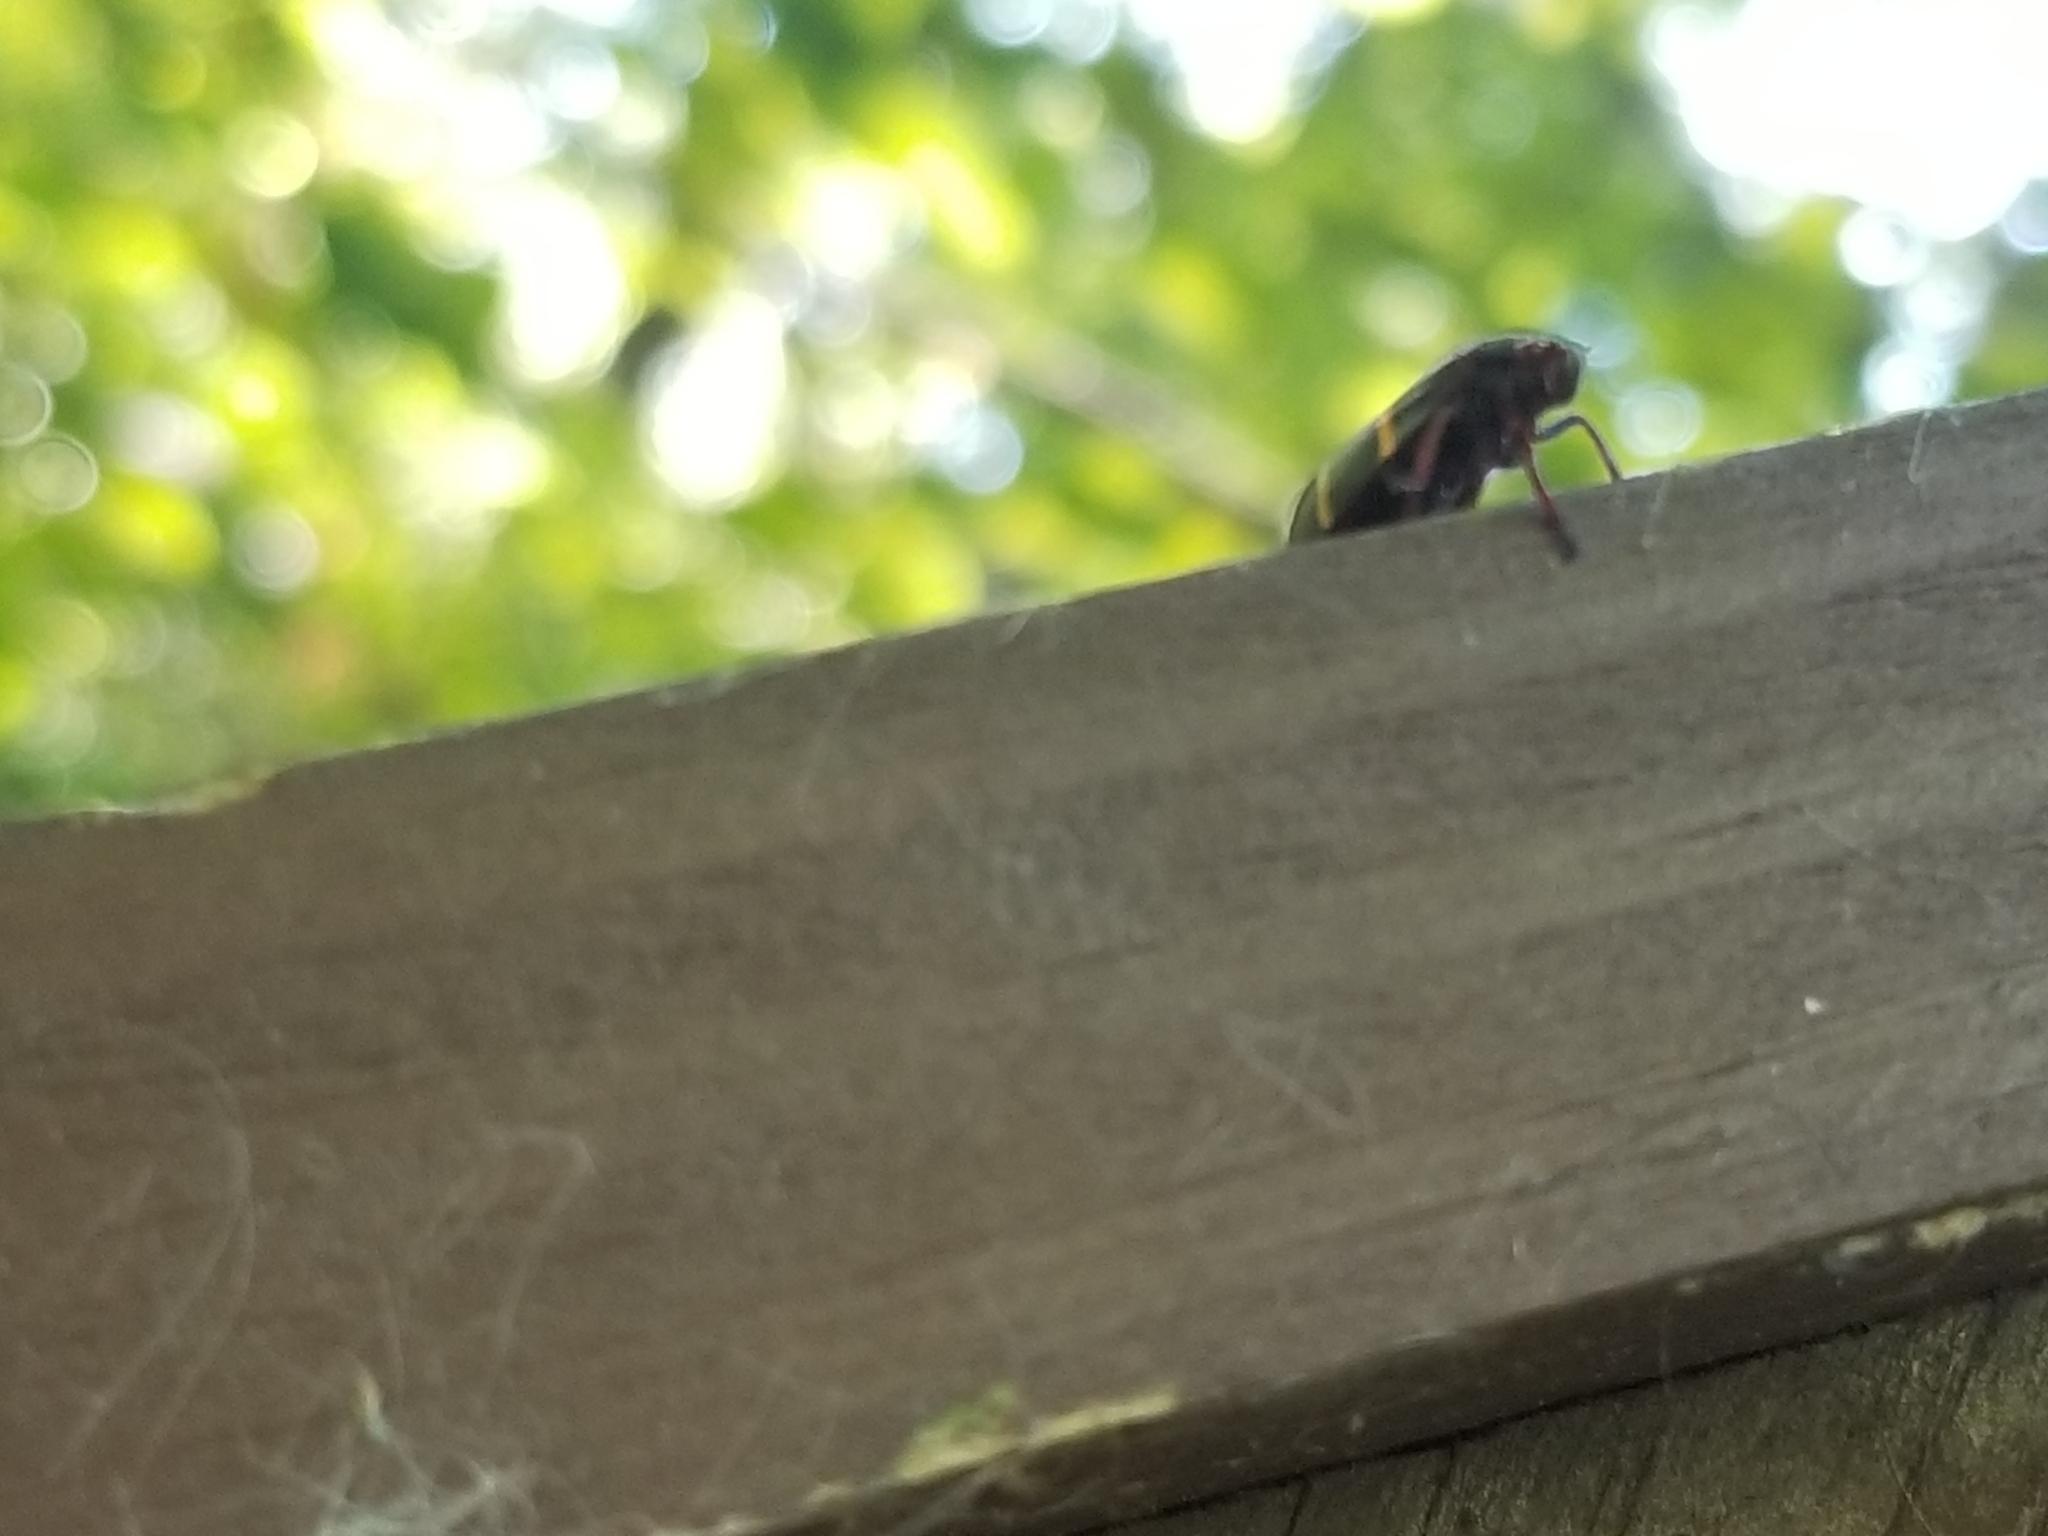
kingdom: Animalia
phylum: Arthropoda
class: Insecta
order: Hemiptera
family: Cercopidae
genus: Prosapia
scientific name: Prosapia bicincta
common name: Twolined spittlebug
